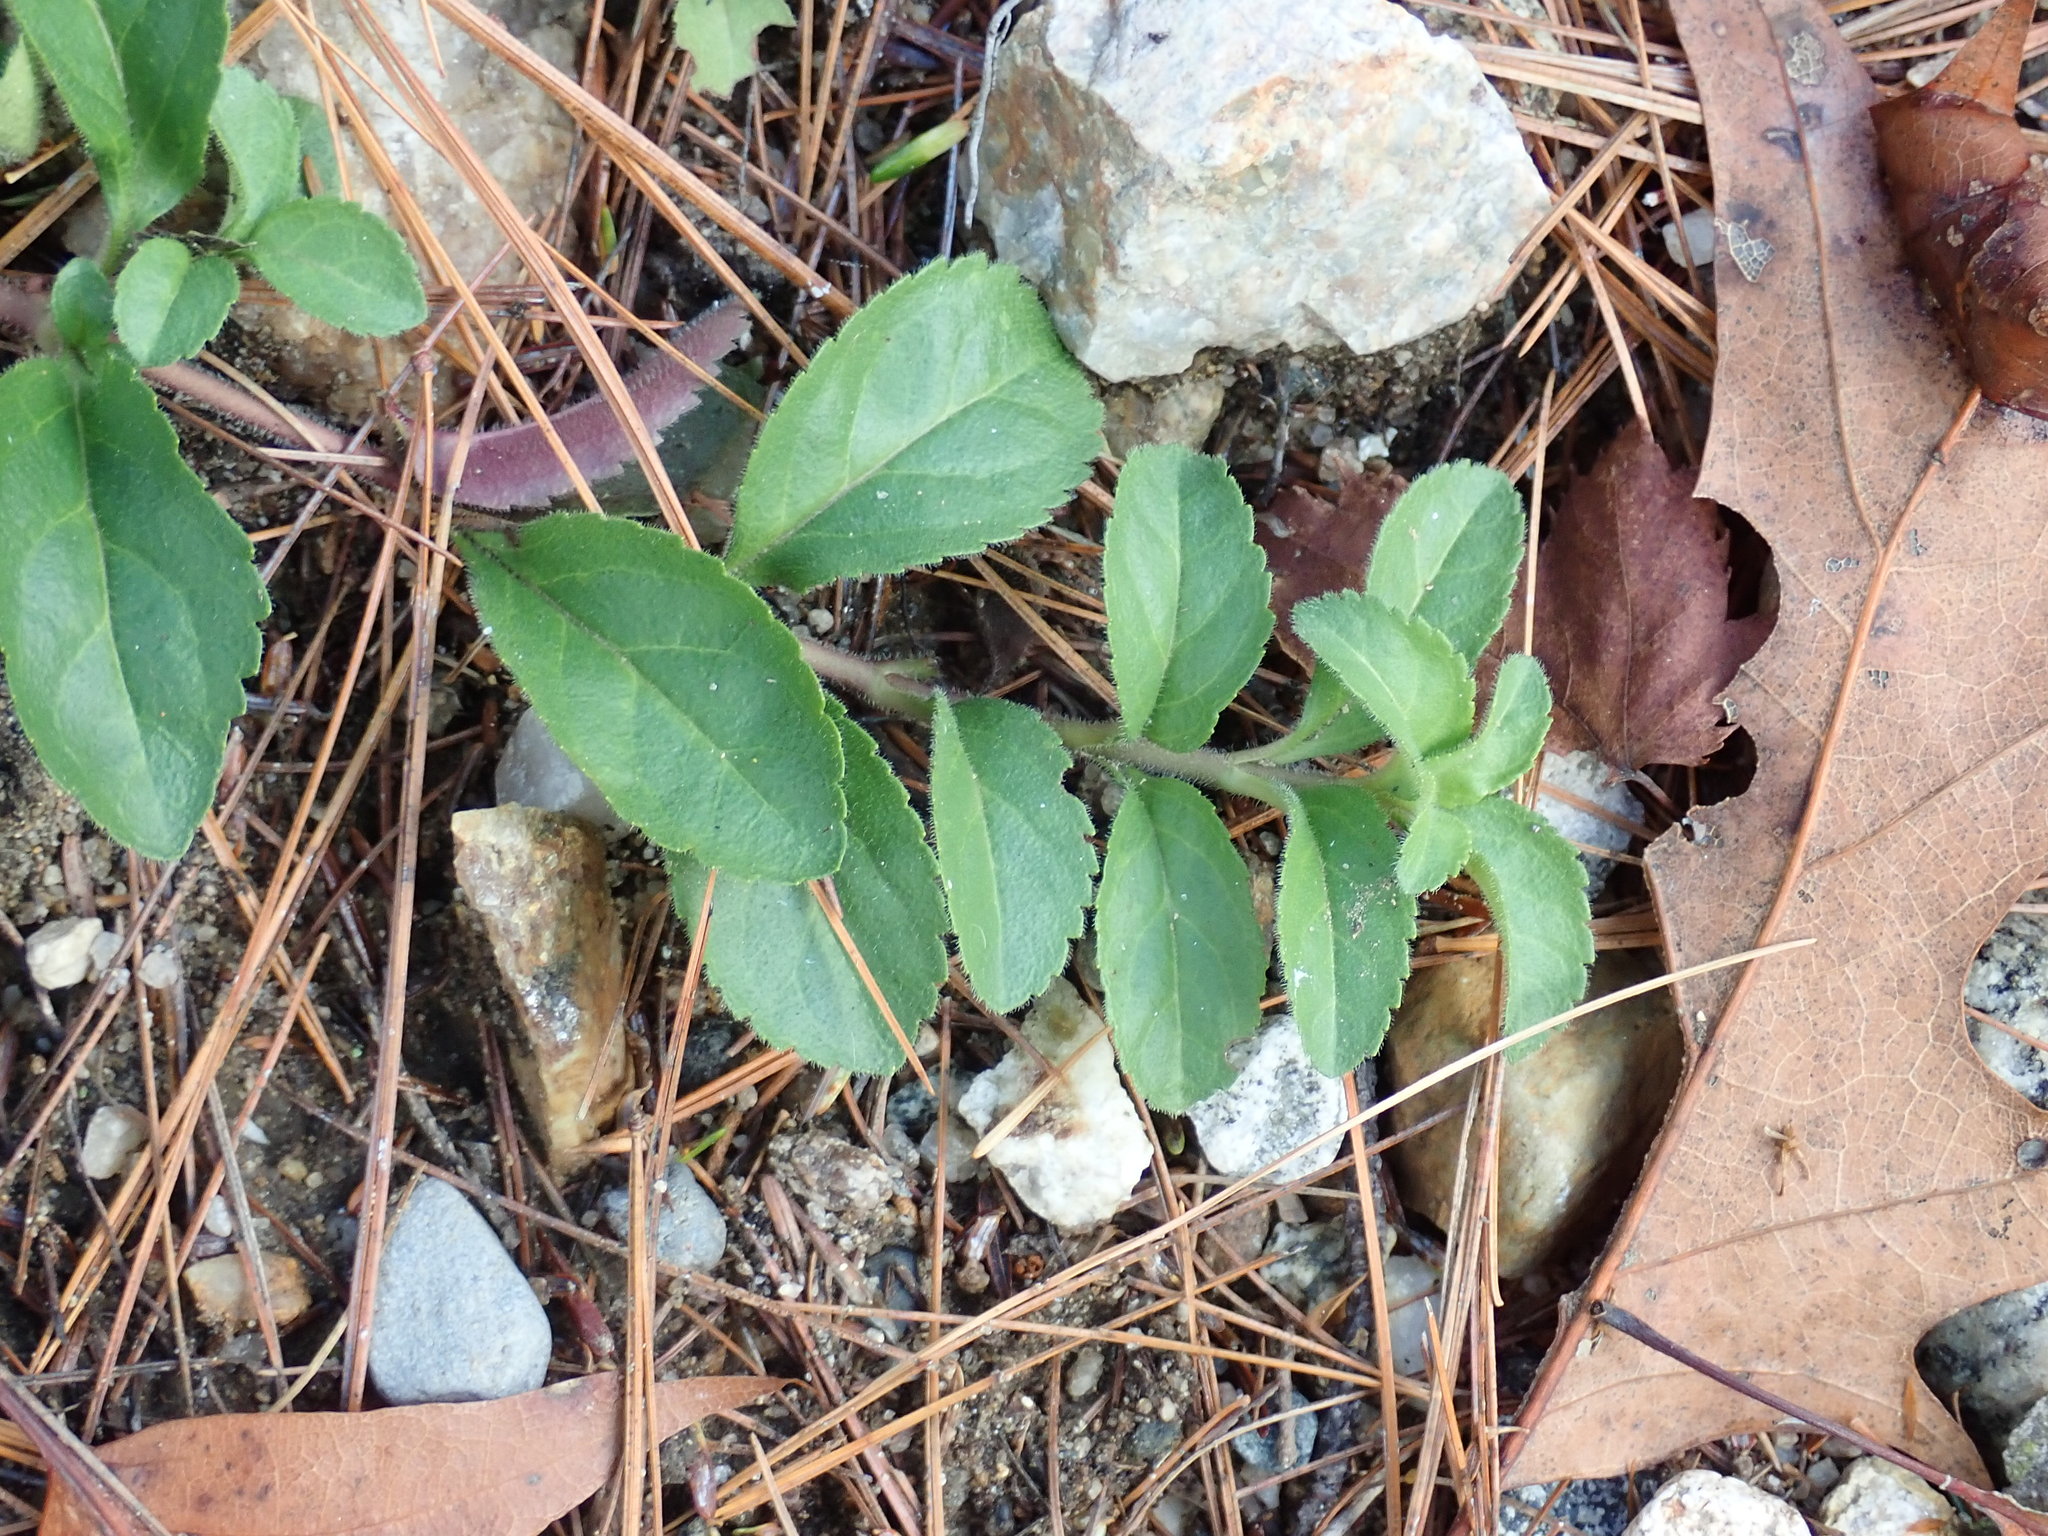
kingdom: Plantae
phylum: Tracheophyta
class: Magnoliopsida
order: Lamiales
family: Plantaginaceae
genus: Veronica
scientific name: Veronica officinalis
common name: Common speedwell
